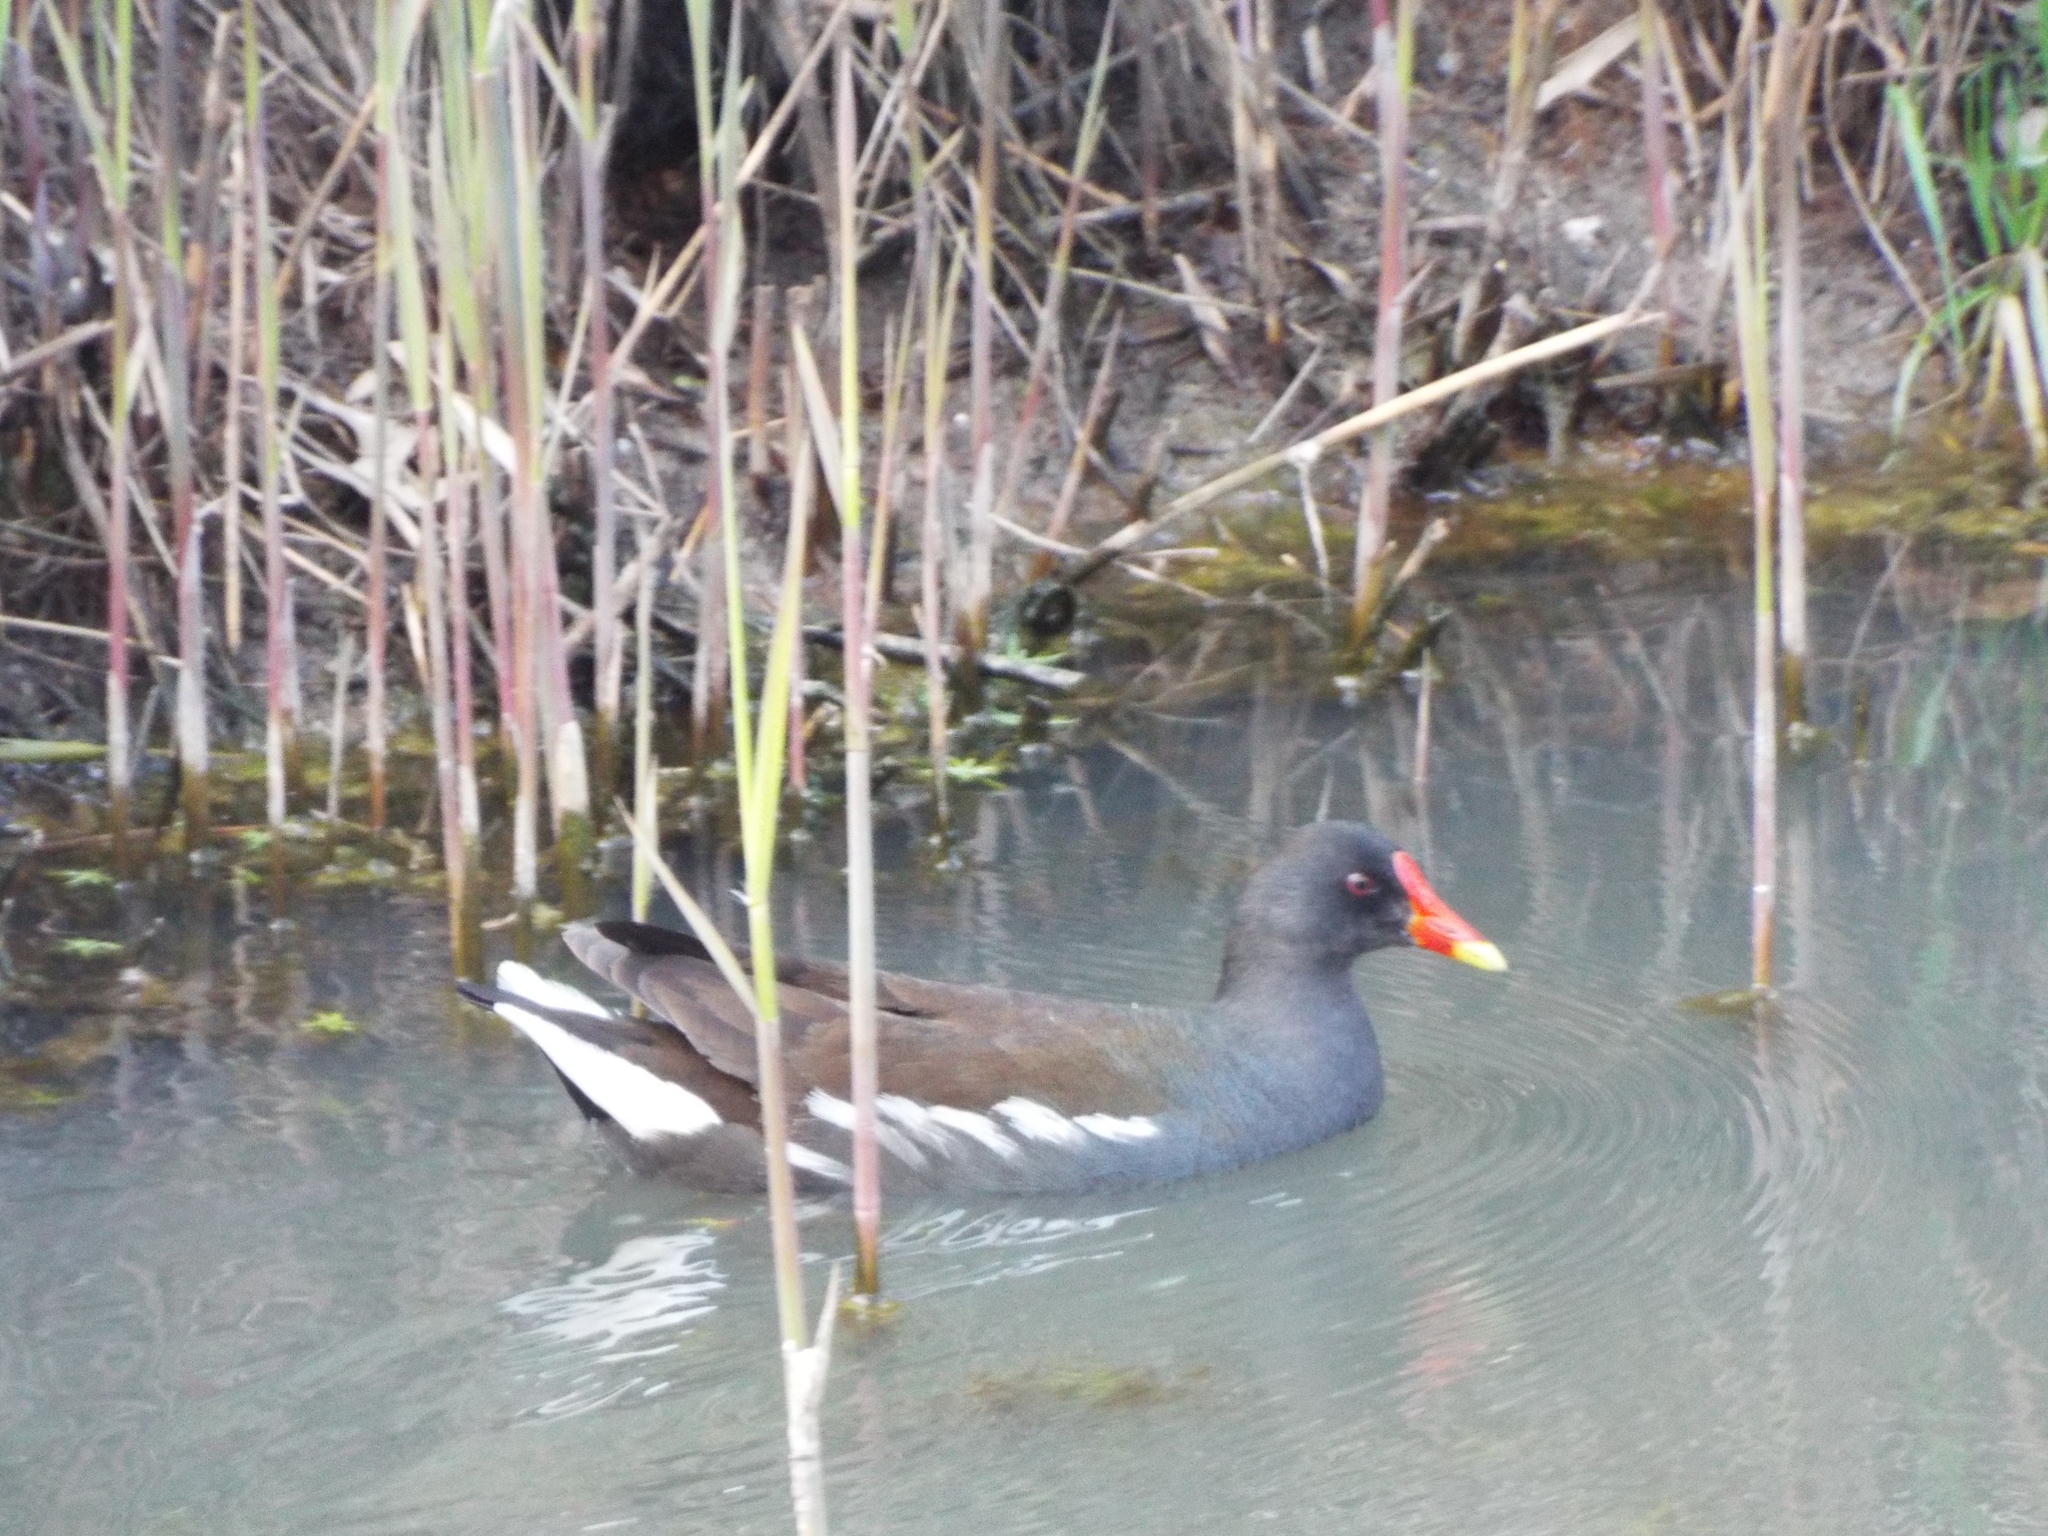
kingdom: Animalia
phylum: Chordata
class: Aves
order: Gruiformes
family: Rallidae
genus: Gallinula
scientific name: Gallinula chloropus
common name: Common moorhen
